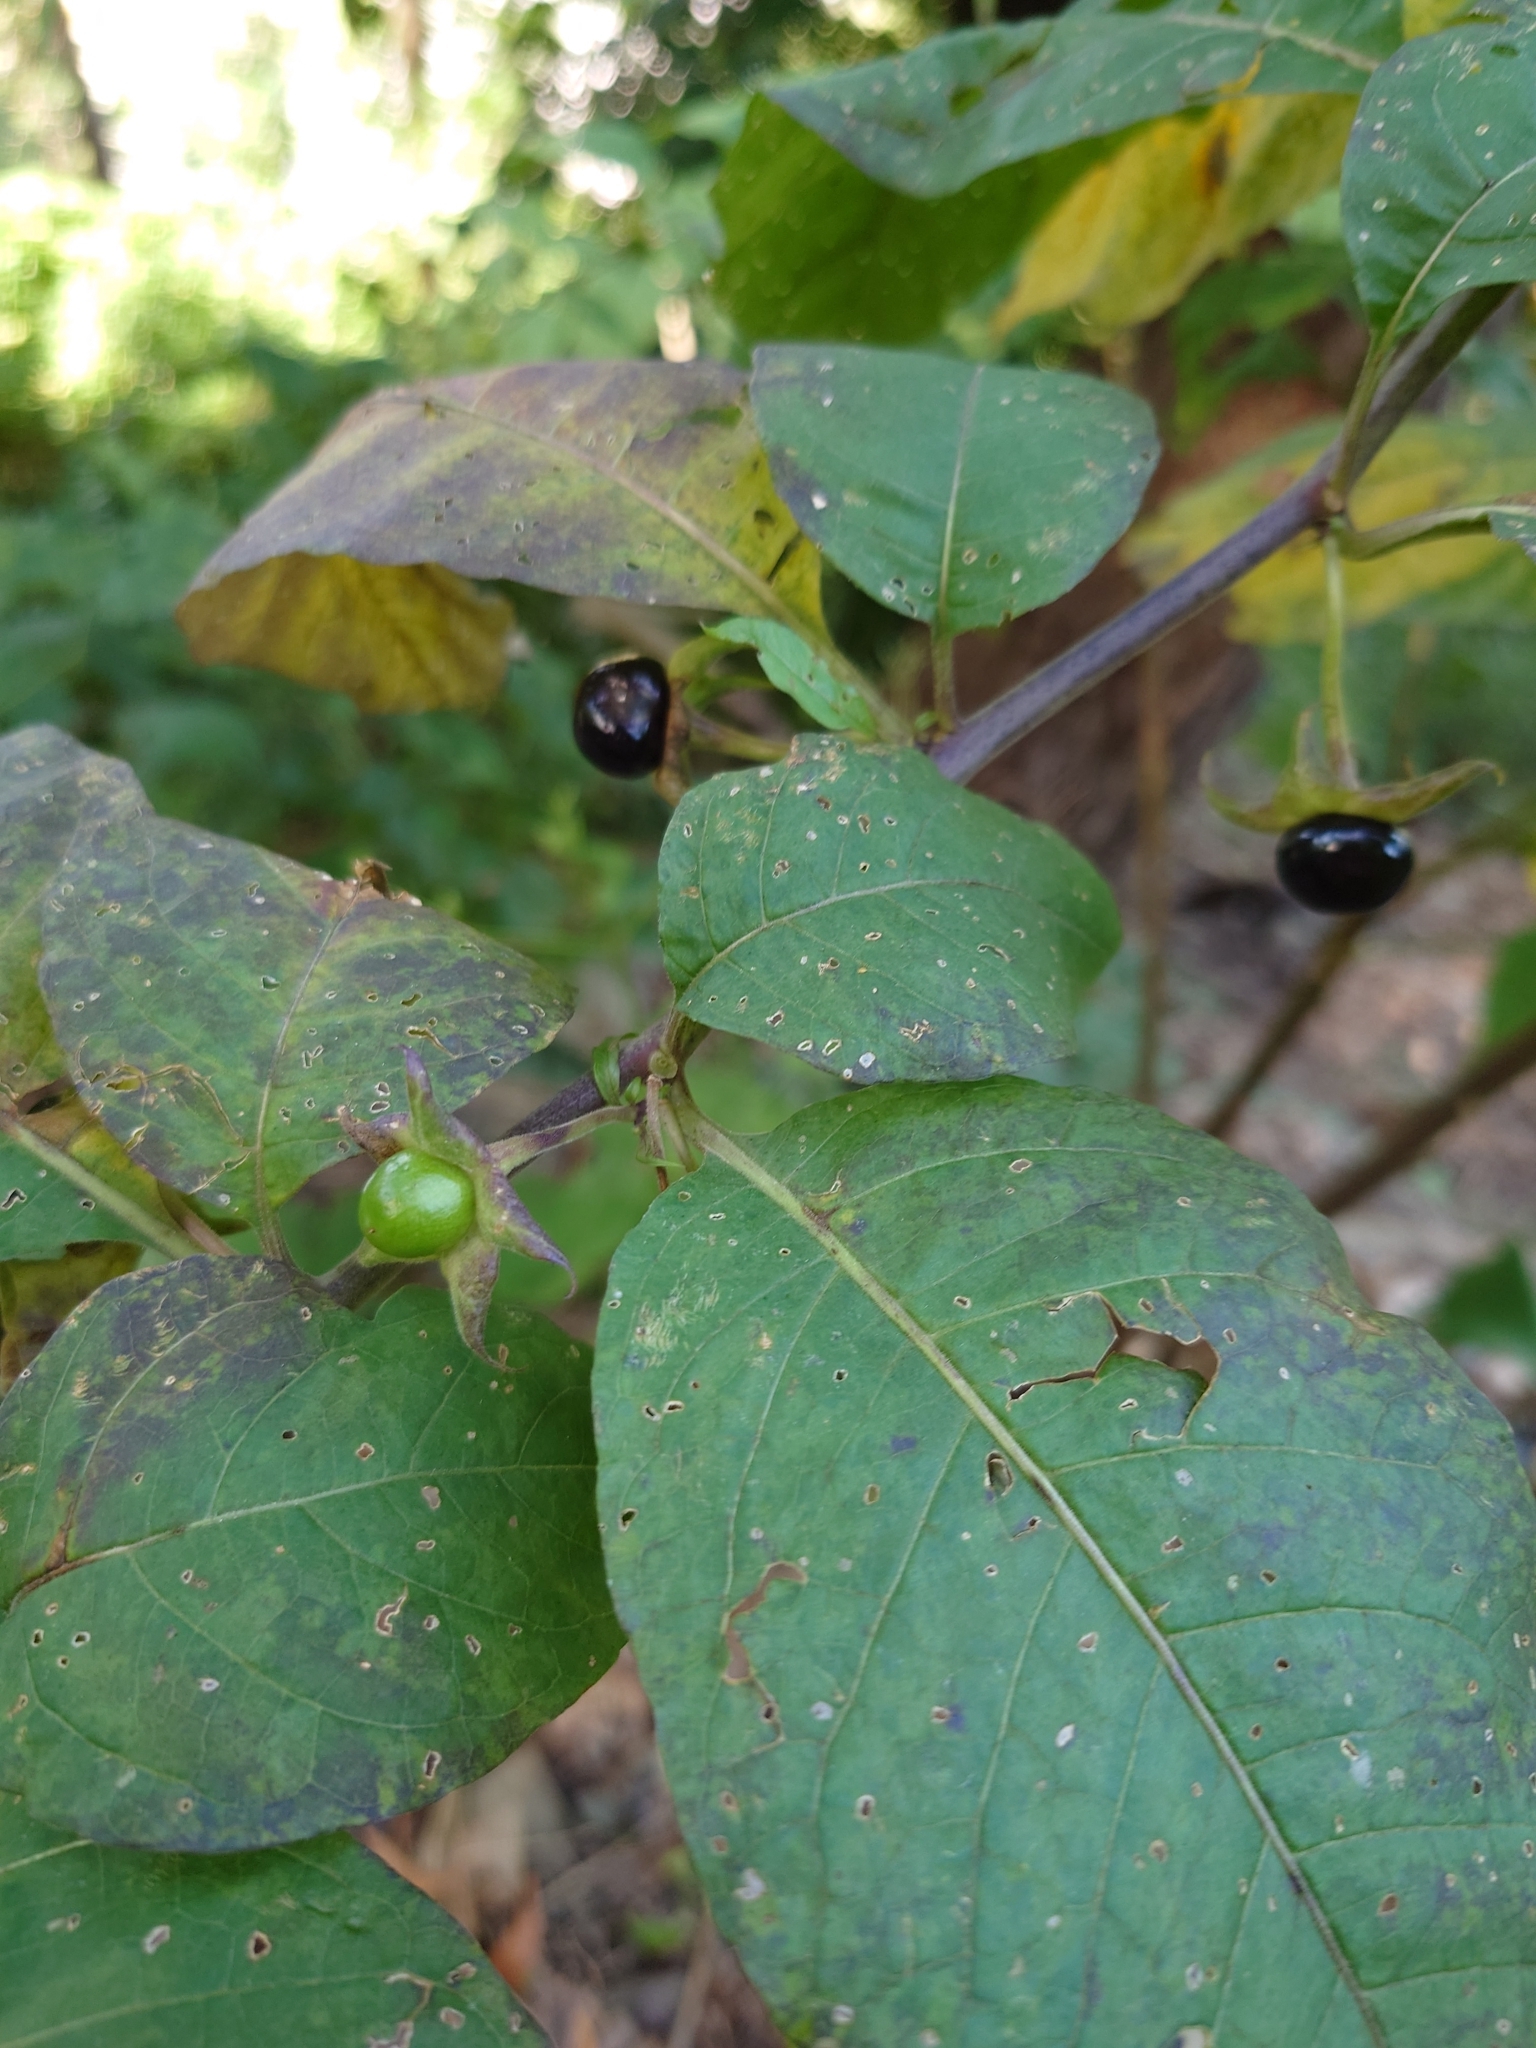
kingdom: Plantae
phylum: Tracheophyta
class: Magnoliopsida
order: Solanales
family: Solanaceae
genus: Atropa
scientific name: Atropa belladonna
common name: Deadly nightshade
